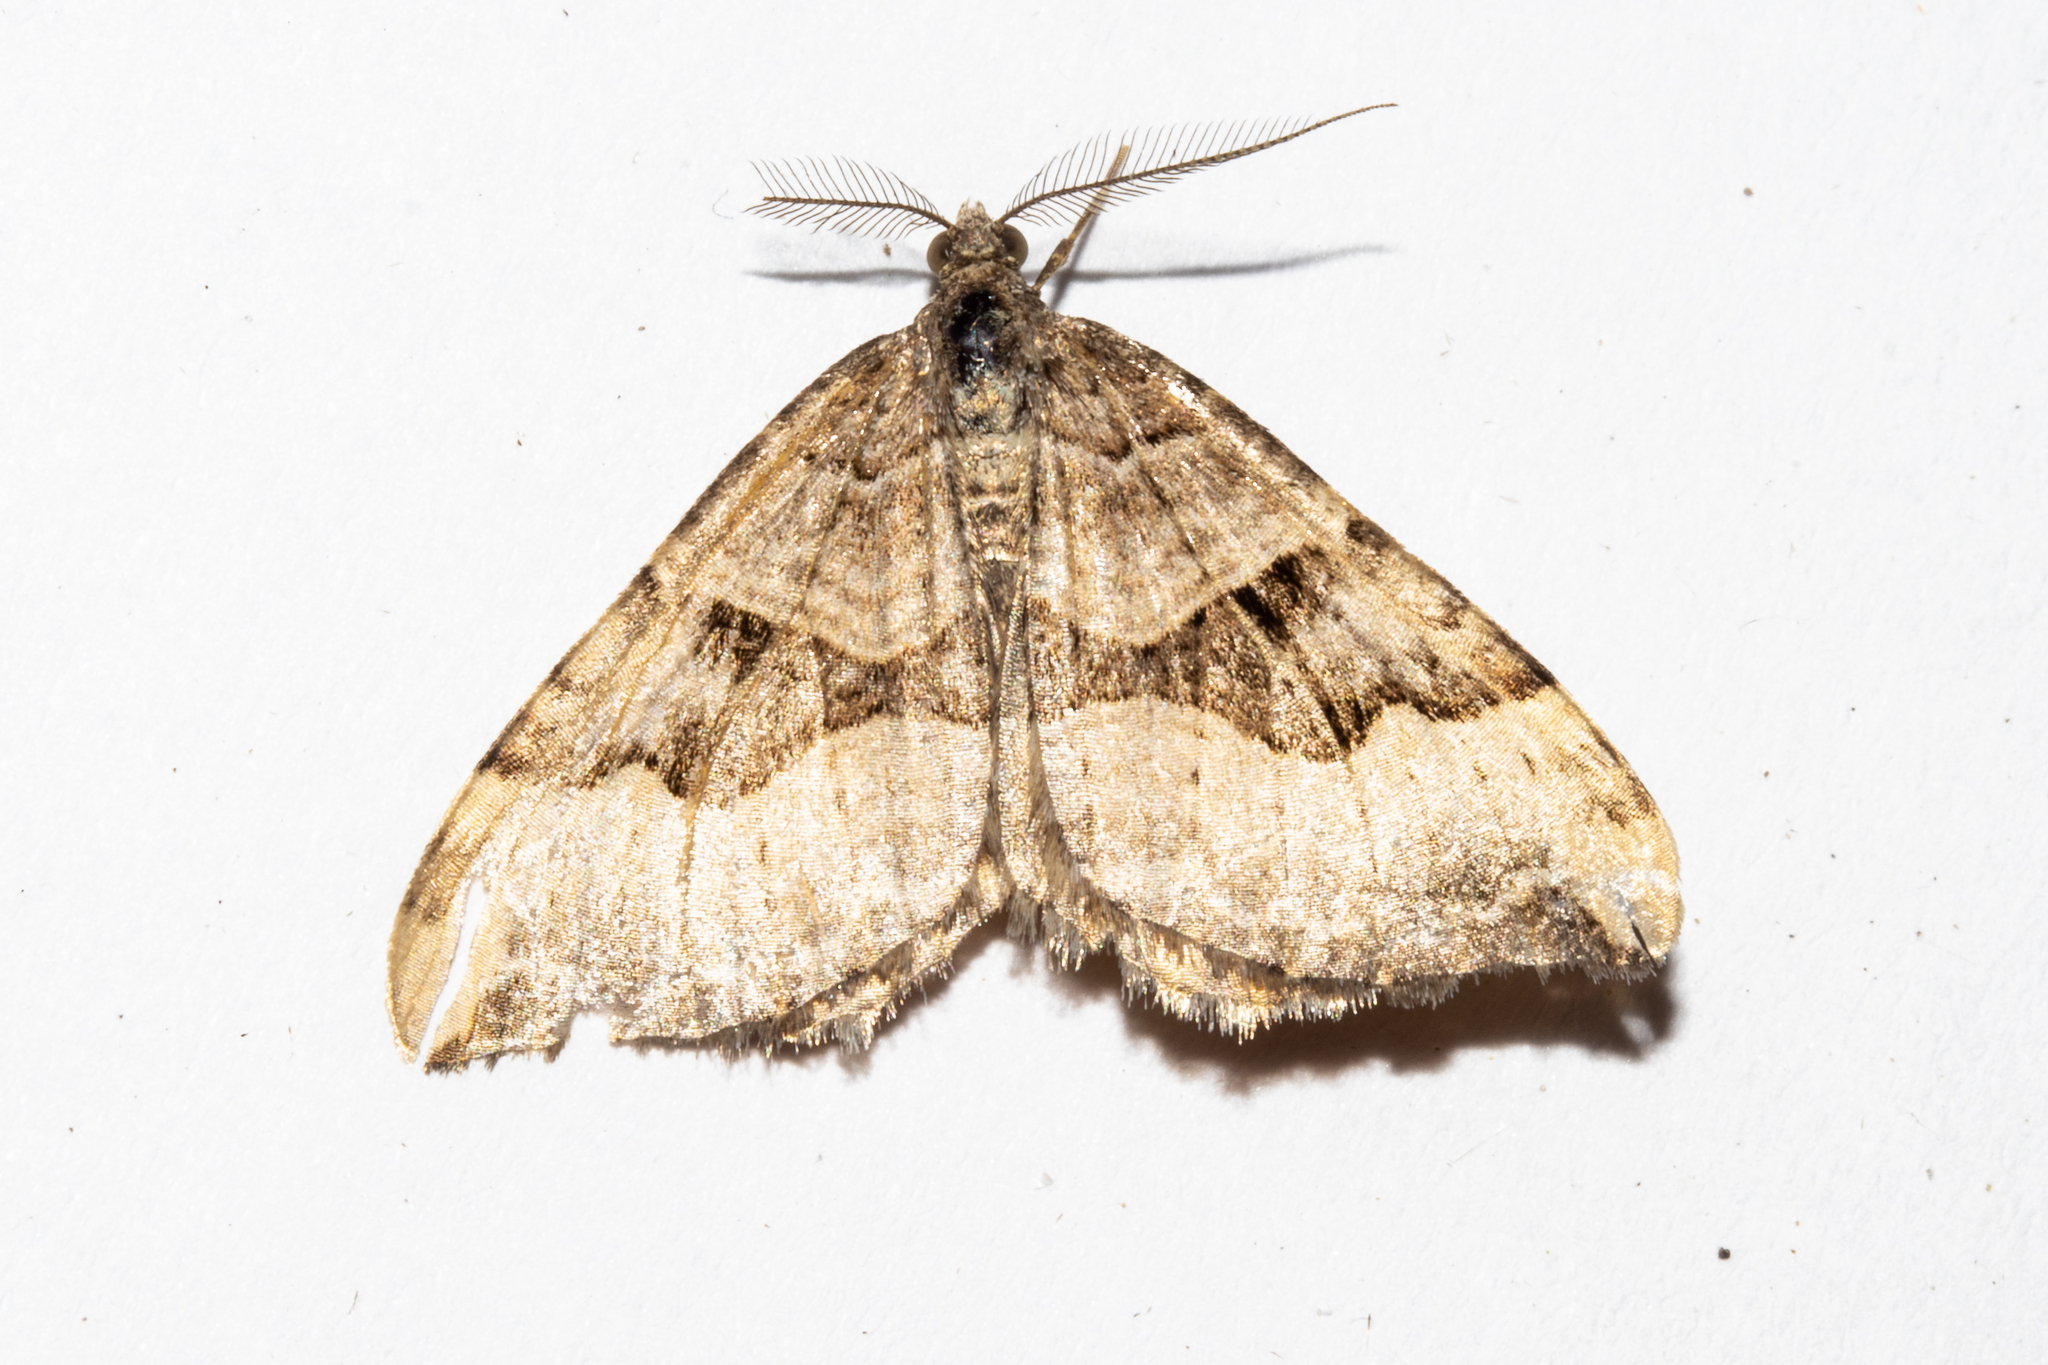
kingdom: Animalia
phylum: Arthropoda
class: Insecta
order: Lepidoptera
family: Geometridae
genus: Xanthorhoe
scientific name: Xanthorhoe semifissata
